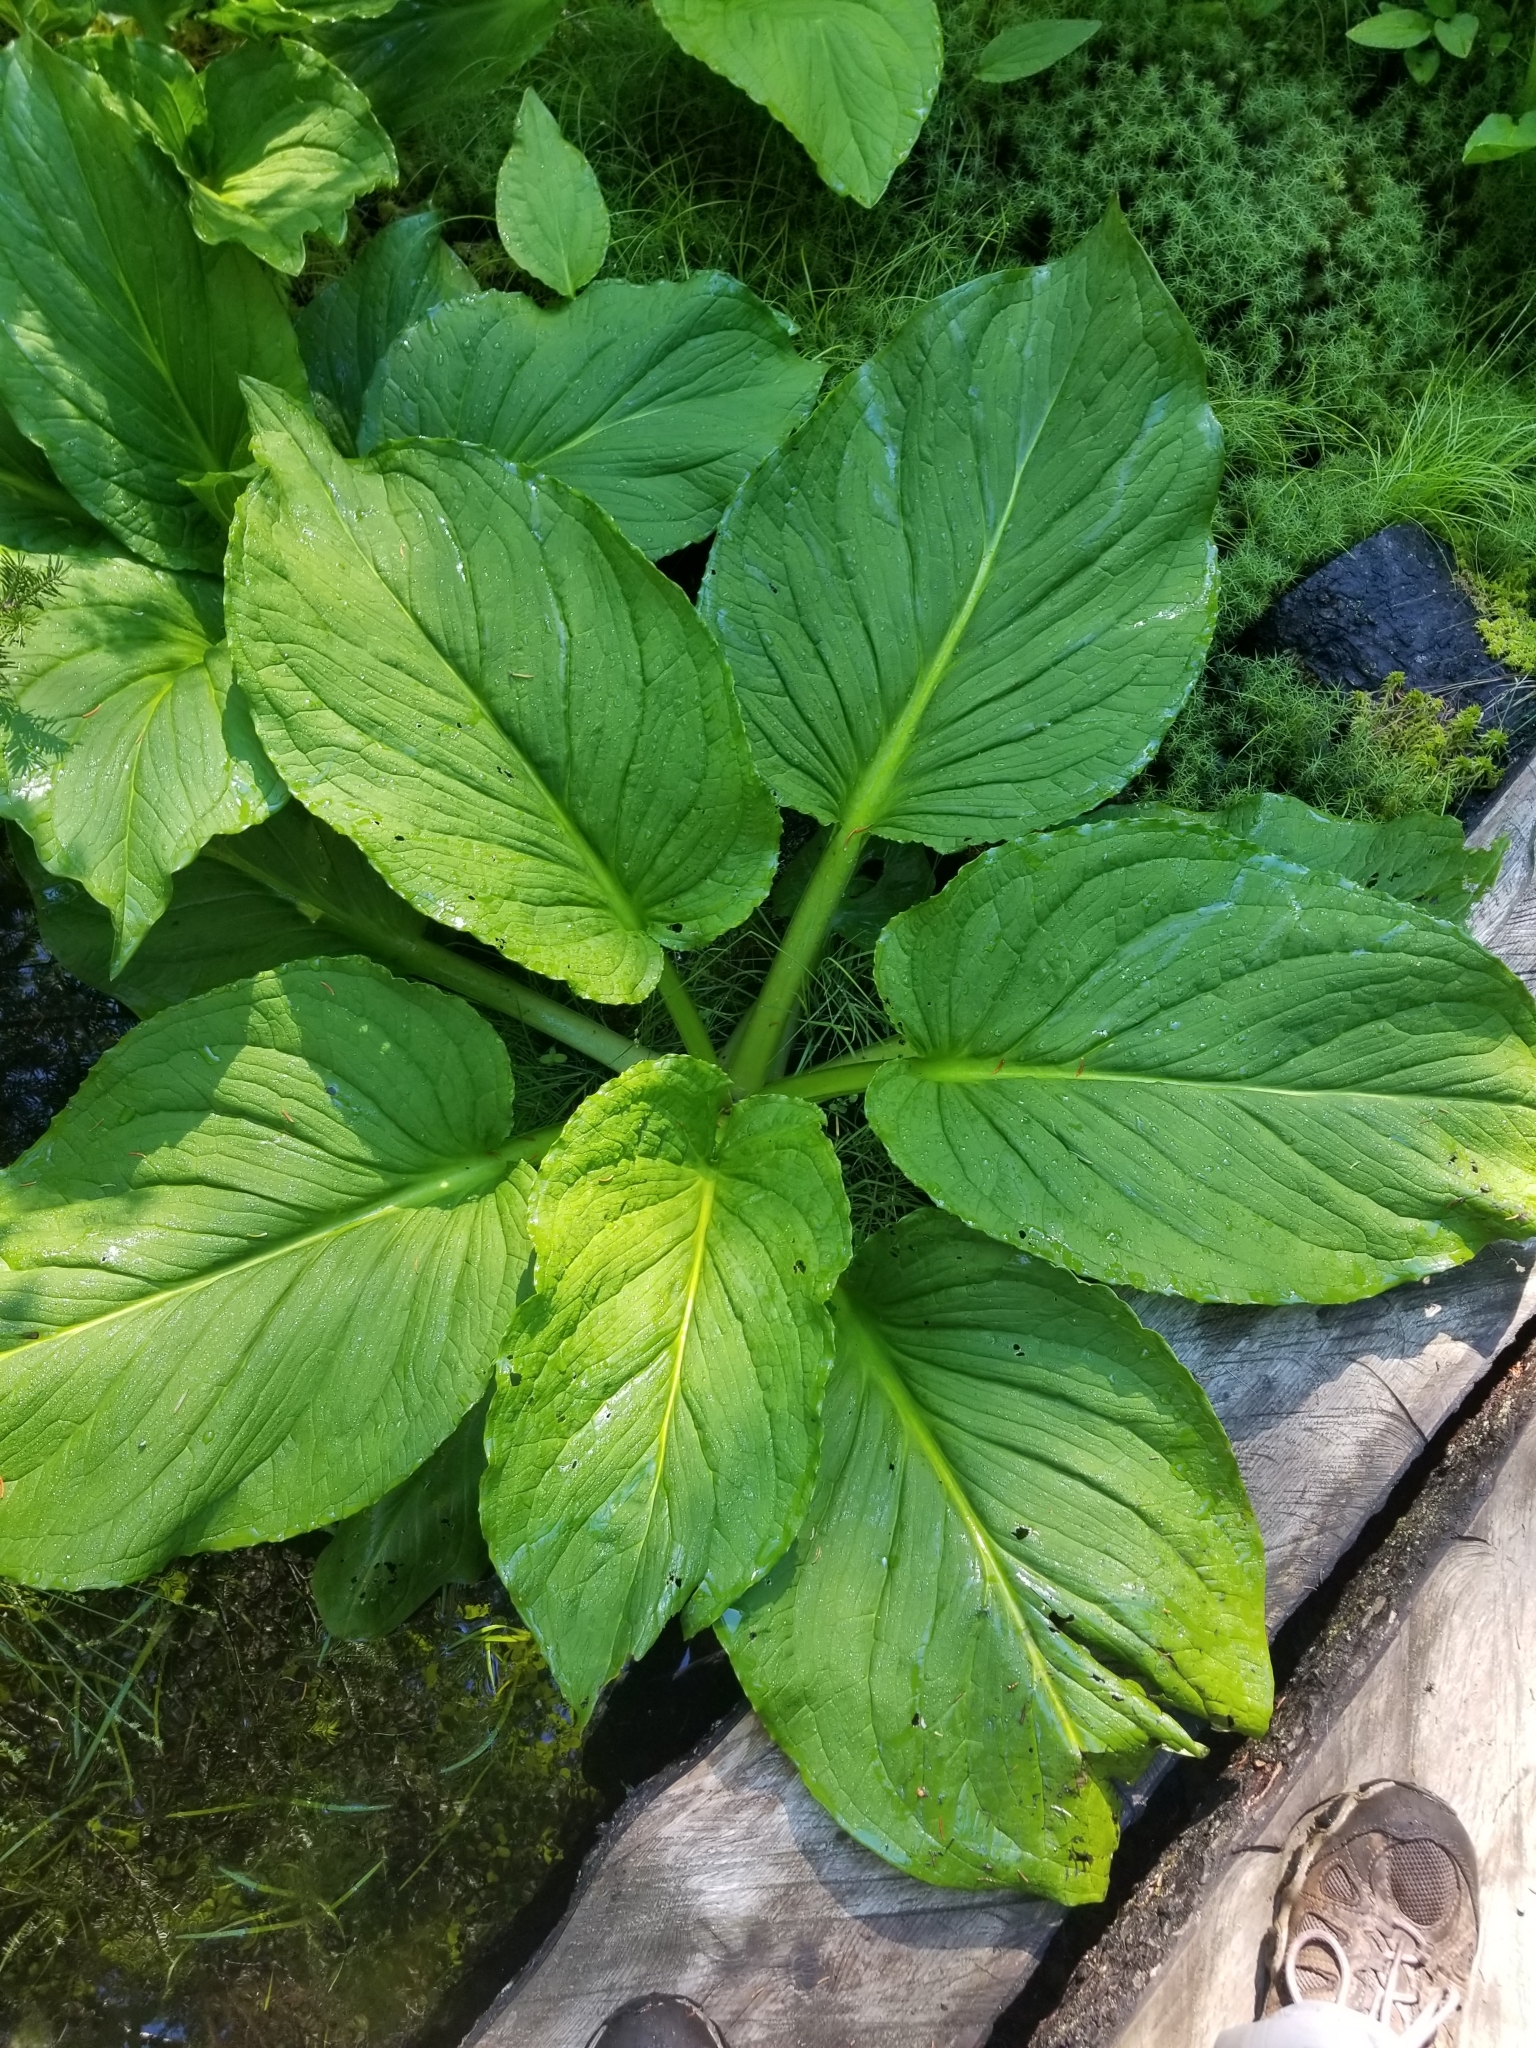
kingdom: Plantae
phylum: Tracheophyta
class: Liliopsida
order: Alismatales
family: Araceae
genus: Symplocarpus
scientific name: Symplocarpus foetidus
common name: Eastern skunk cabbage
